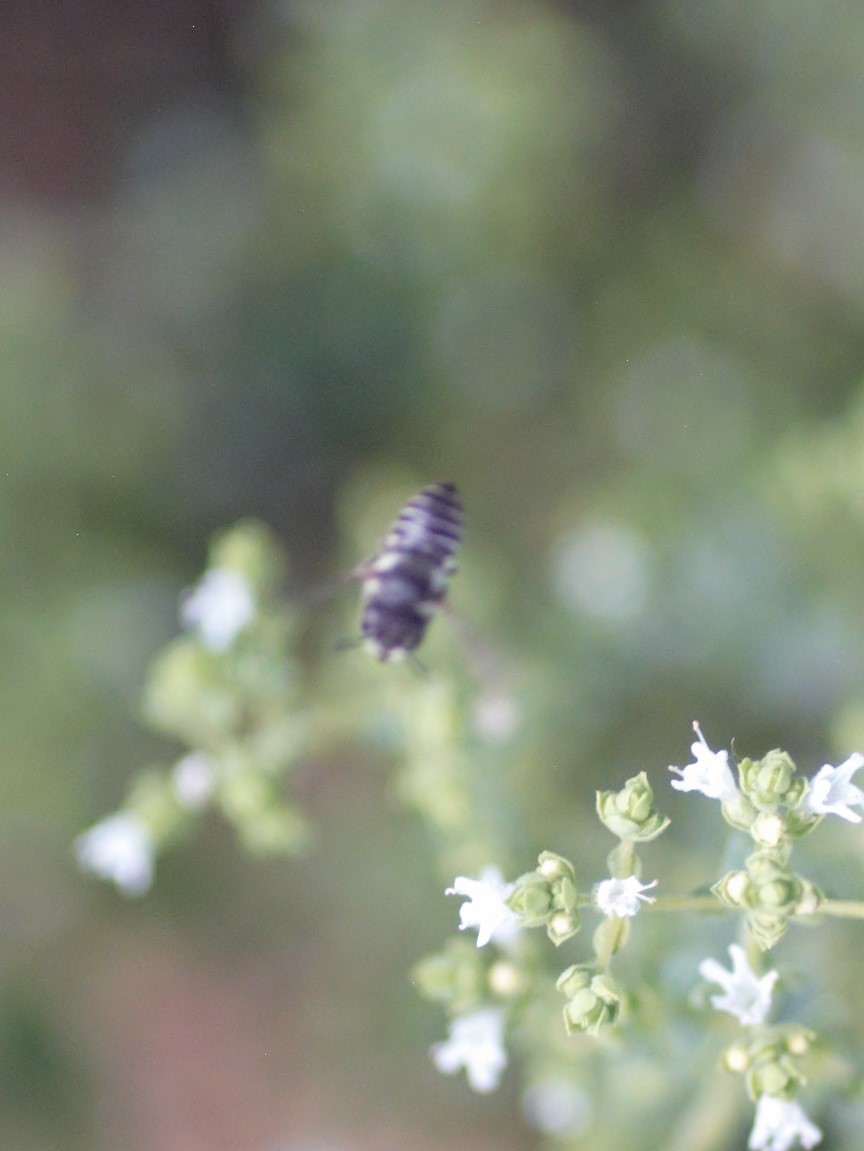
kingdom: Animalia
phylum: Arthropoda
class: Insecta
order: Hymenoptera
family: Megachilidae
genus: Megachile
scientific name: Megachile
